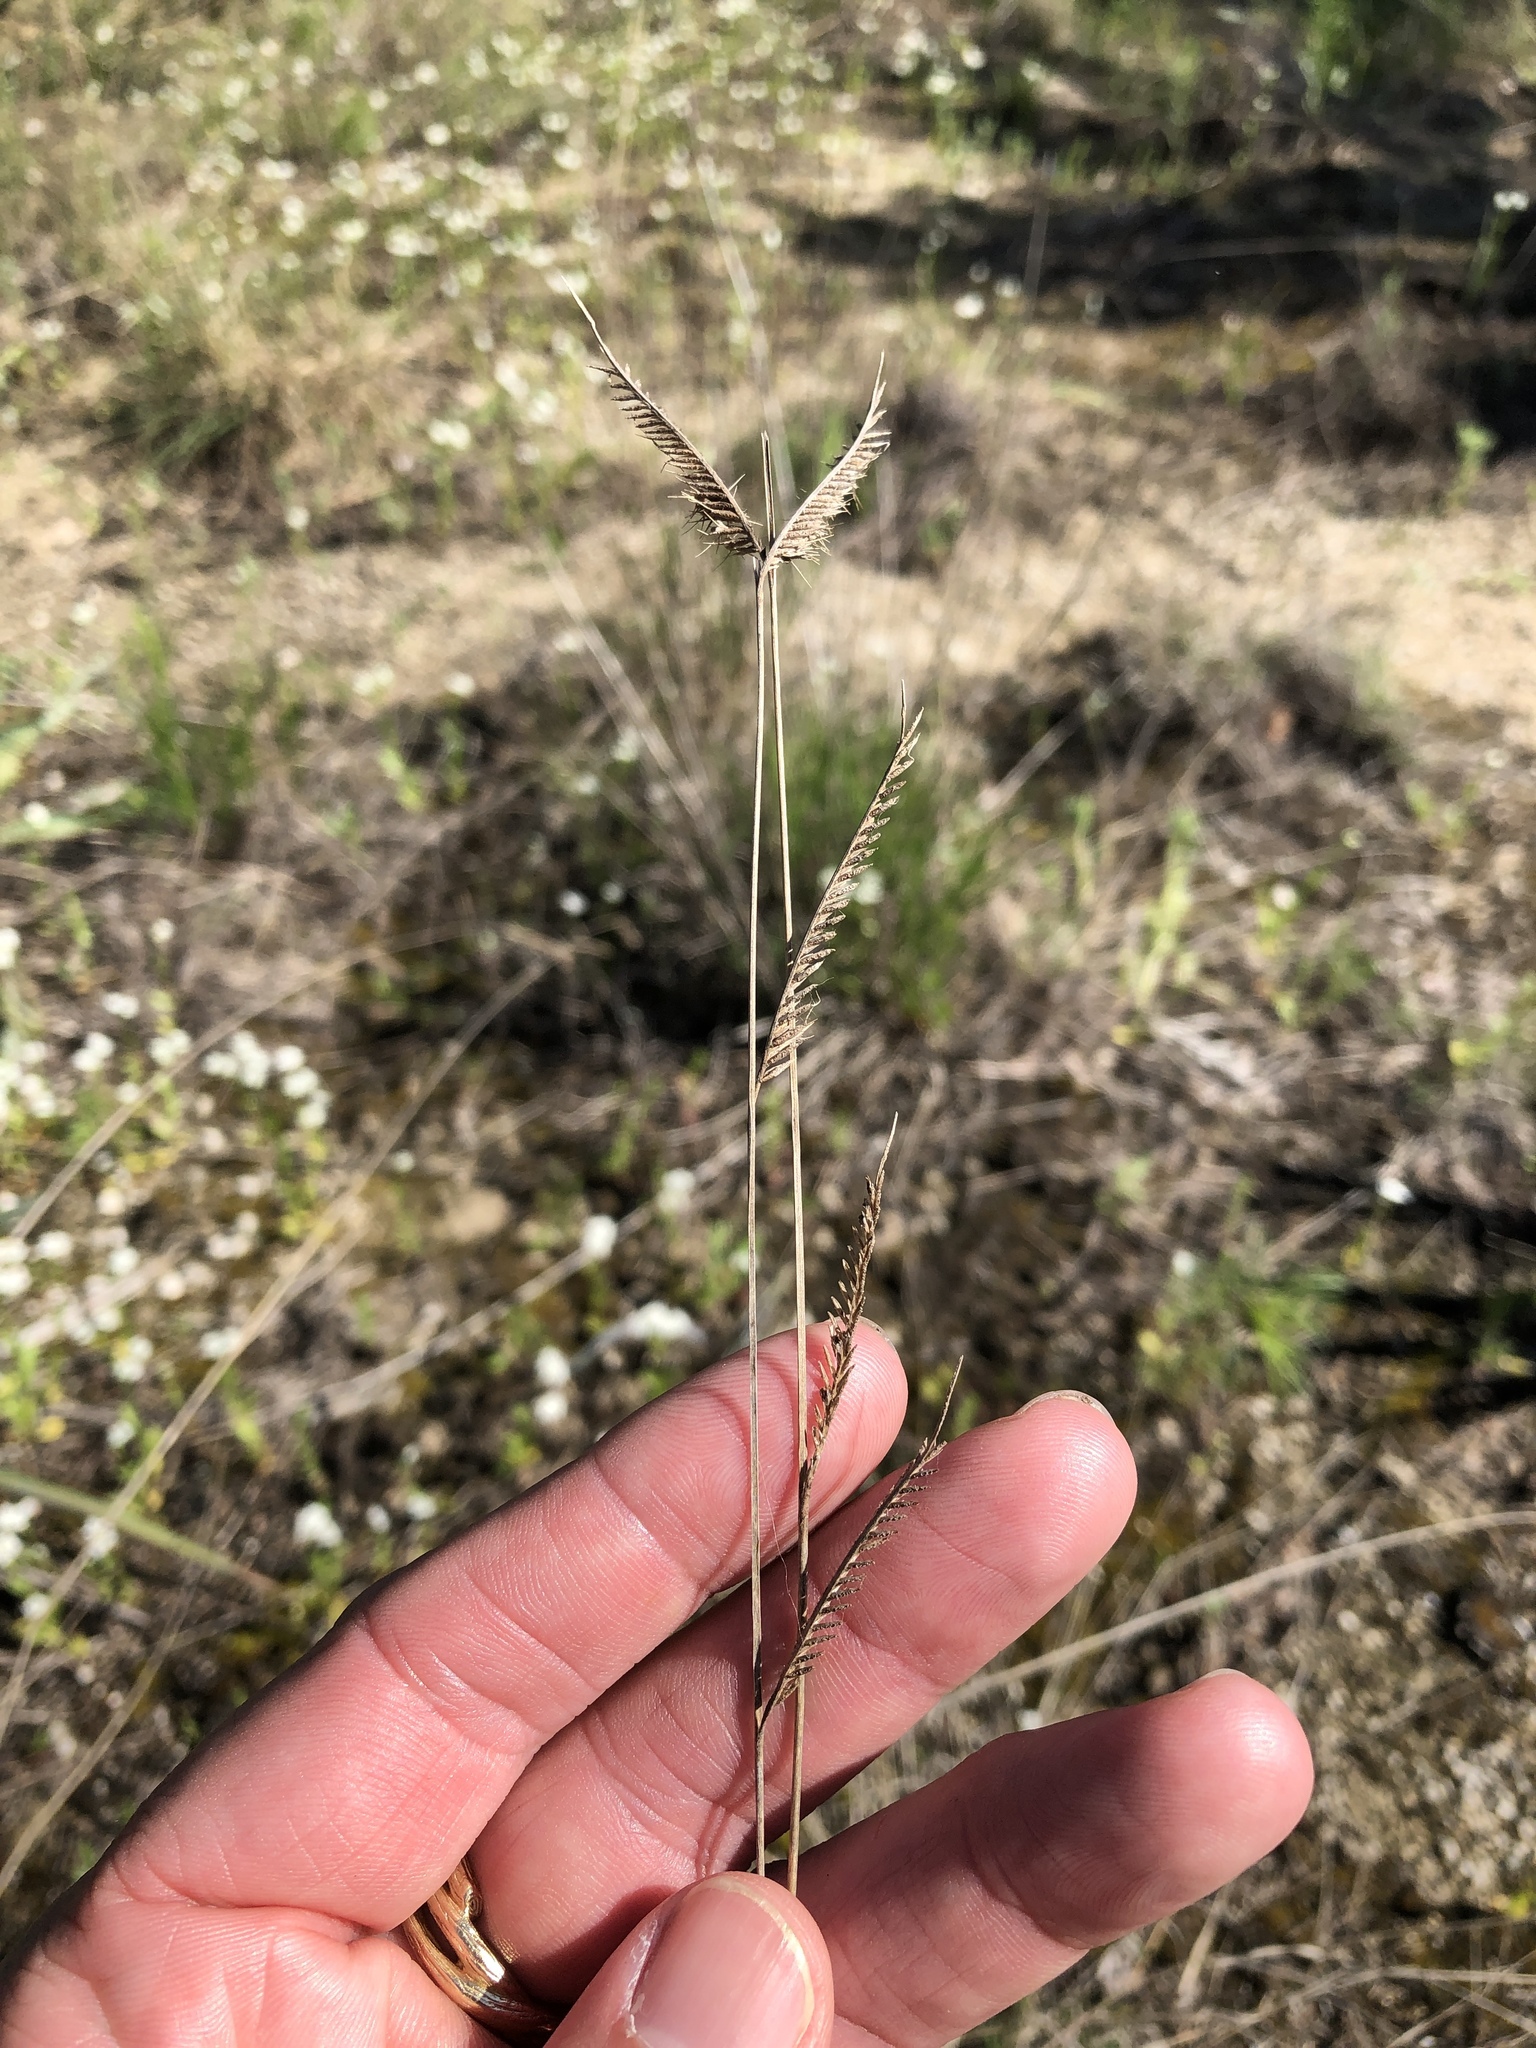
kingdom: Plantae
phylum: Tracheophyta
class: Liliopsida
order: Poales
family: Poaceae
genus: Bouteloua
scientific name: Bouteloua pectinata
